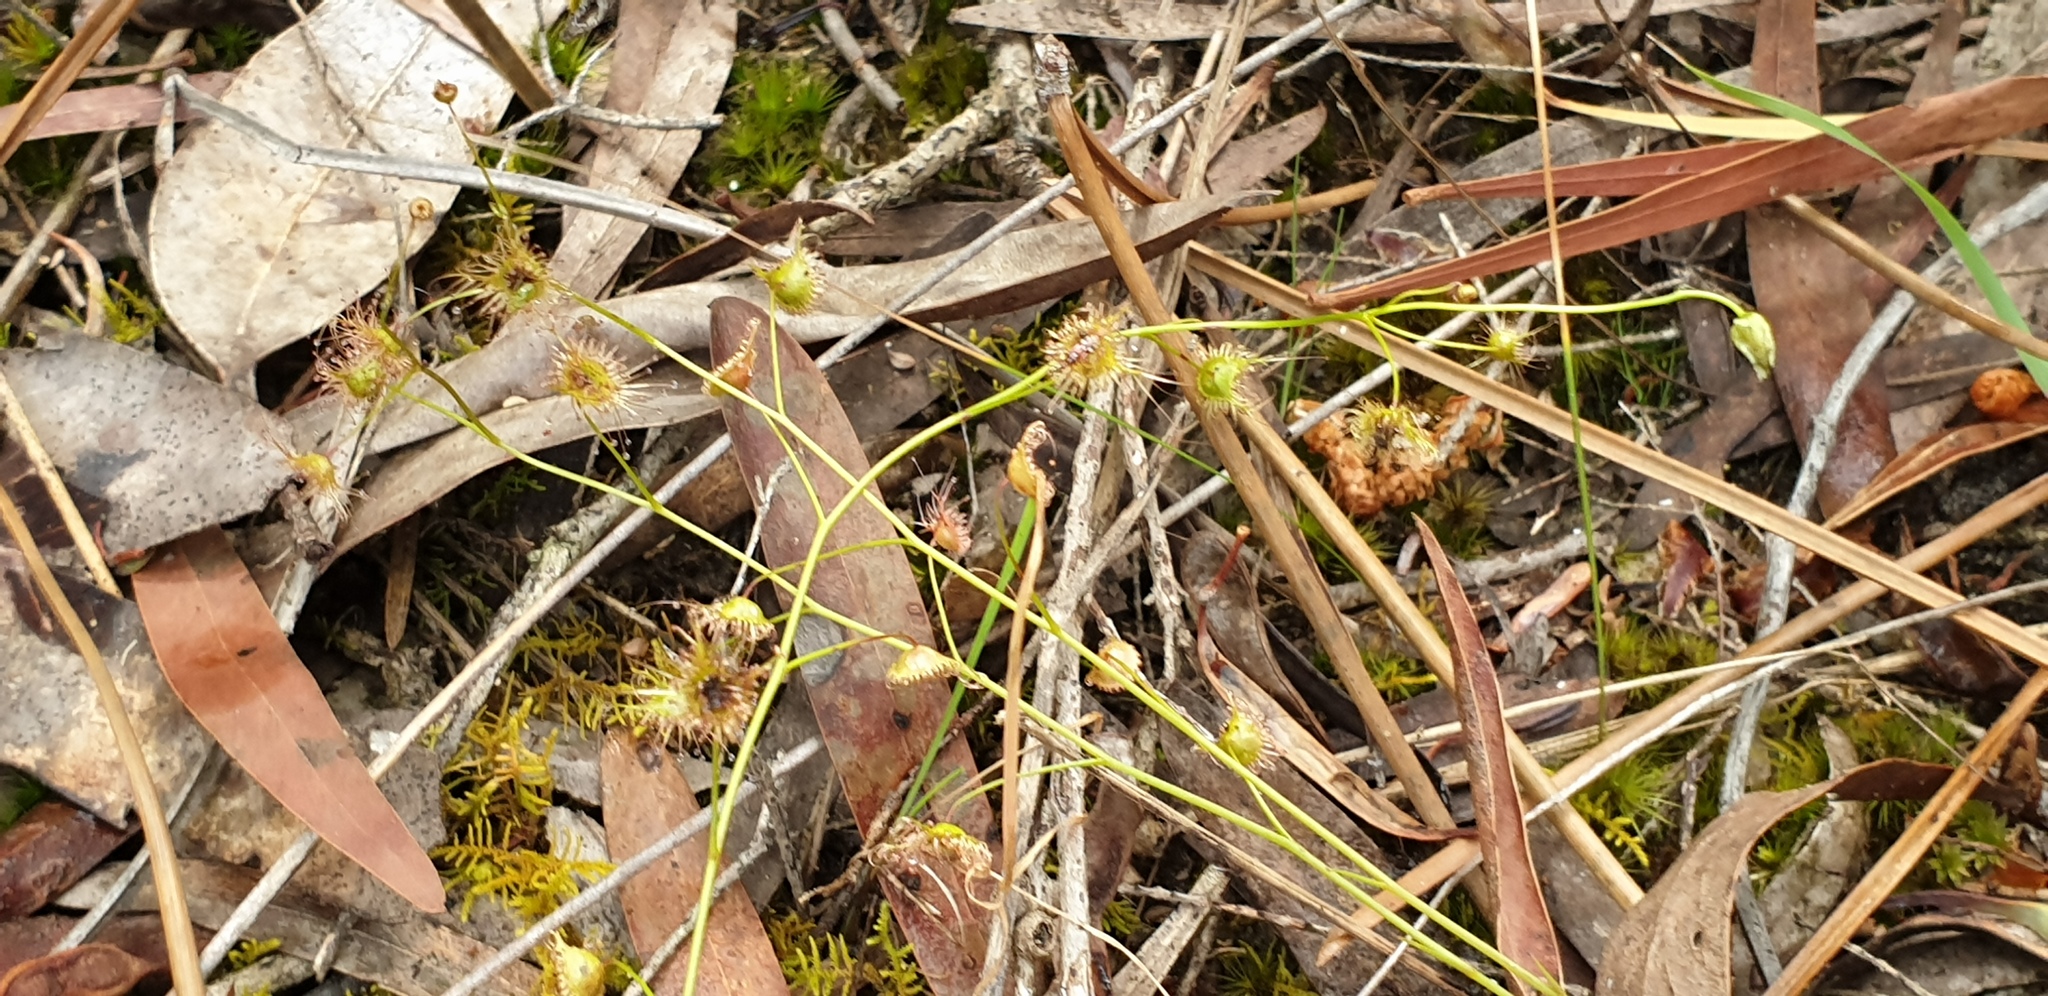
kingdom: Plantae
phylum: Tracheophyta
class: Magnoliopsida
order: Caryophyllales
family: Droseraceae
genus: Drosera
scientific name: Drosera peltata
